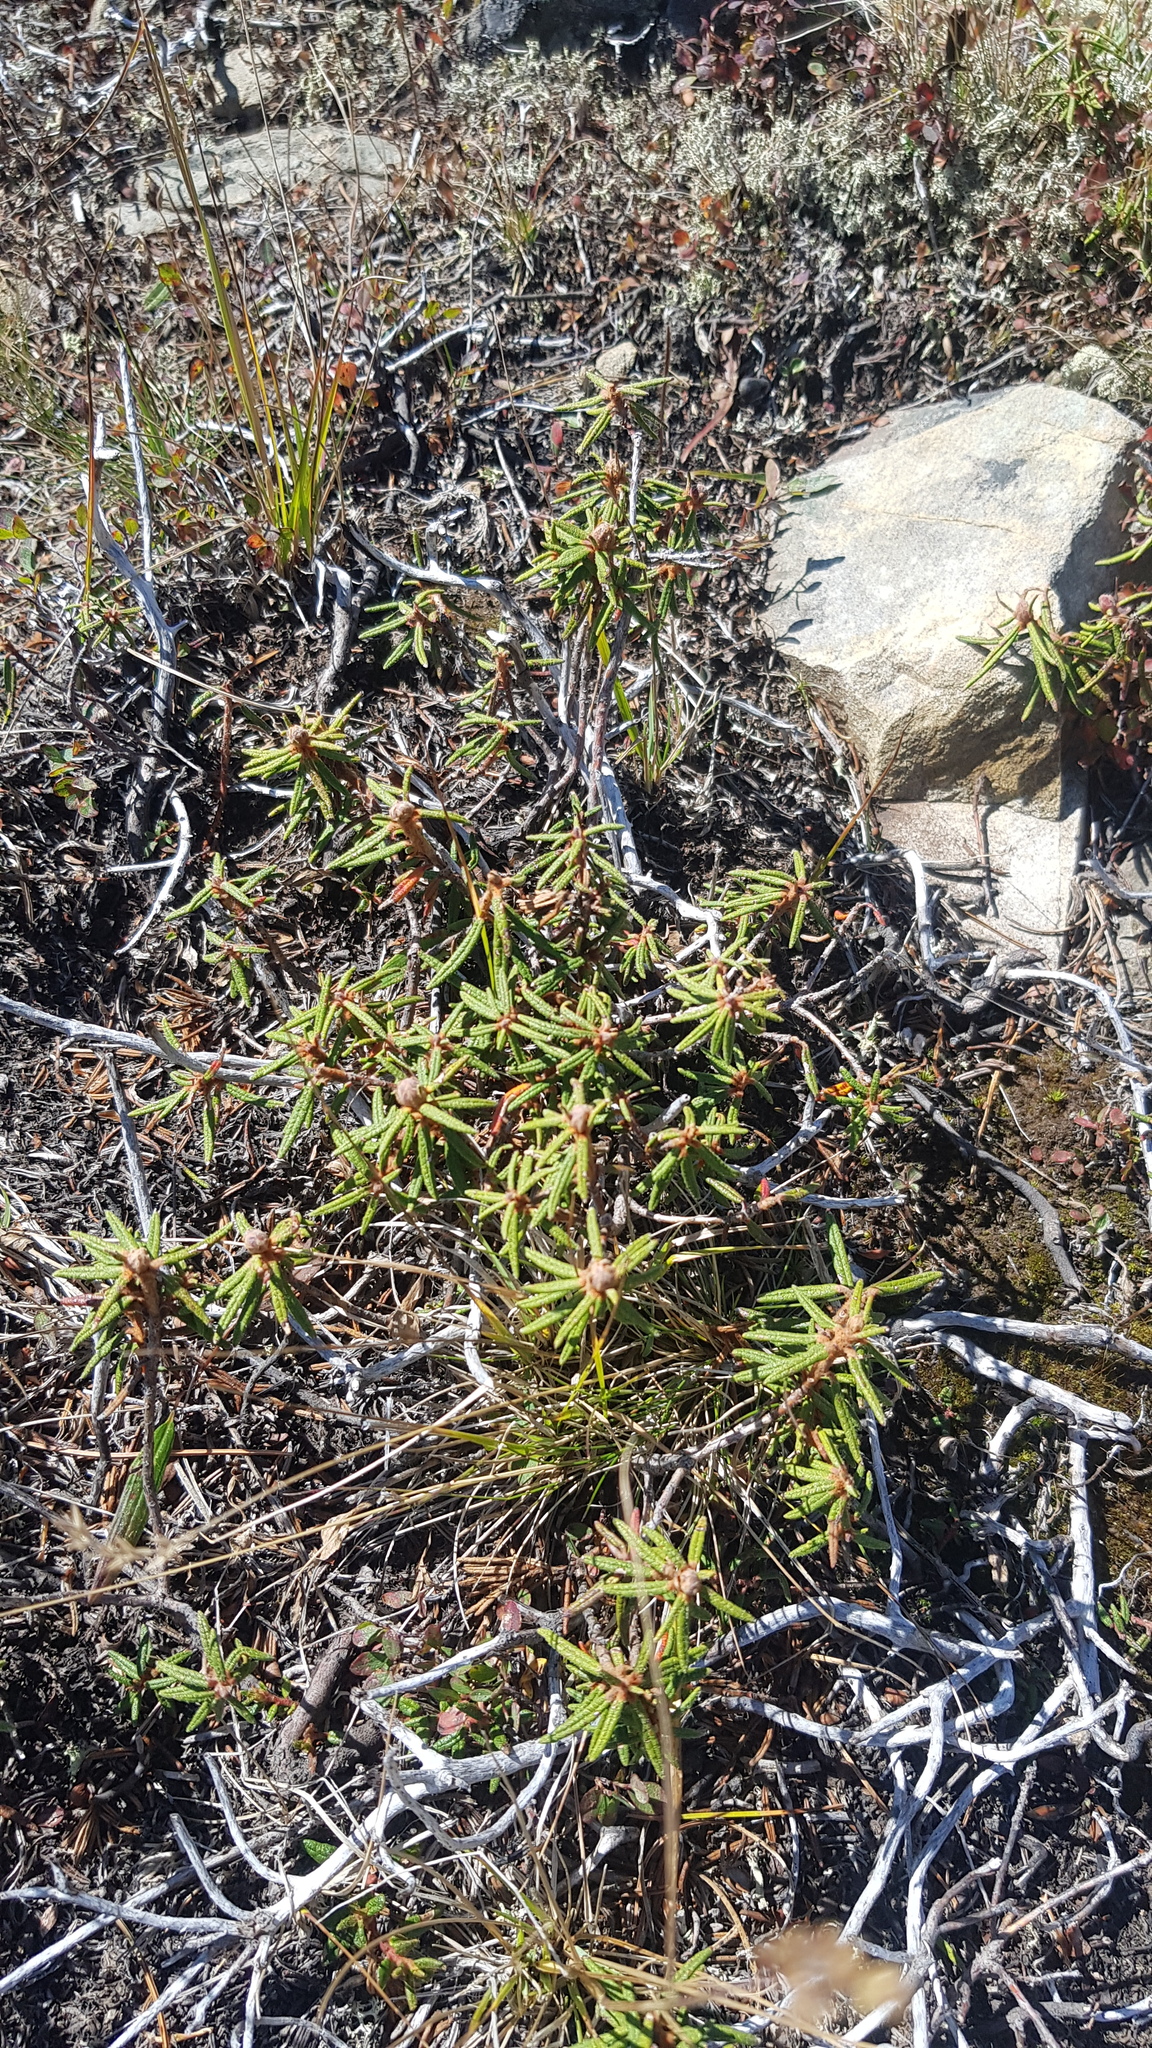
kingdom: Plantae
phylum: Tracheophyta
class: Magnoliopsida
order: Ericales
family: Ericaceae
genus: Rhododendron
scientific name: Rhododendron tomentosum
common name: Marsh labrador tea
